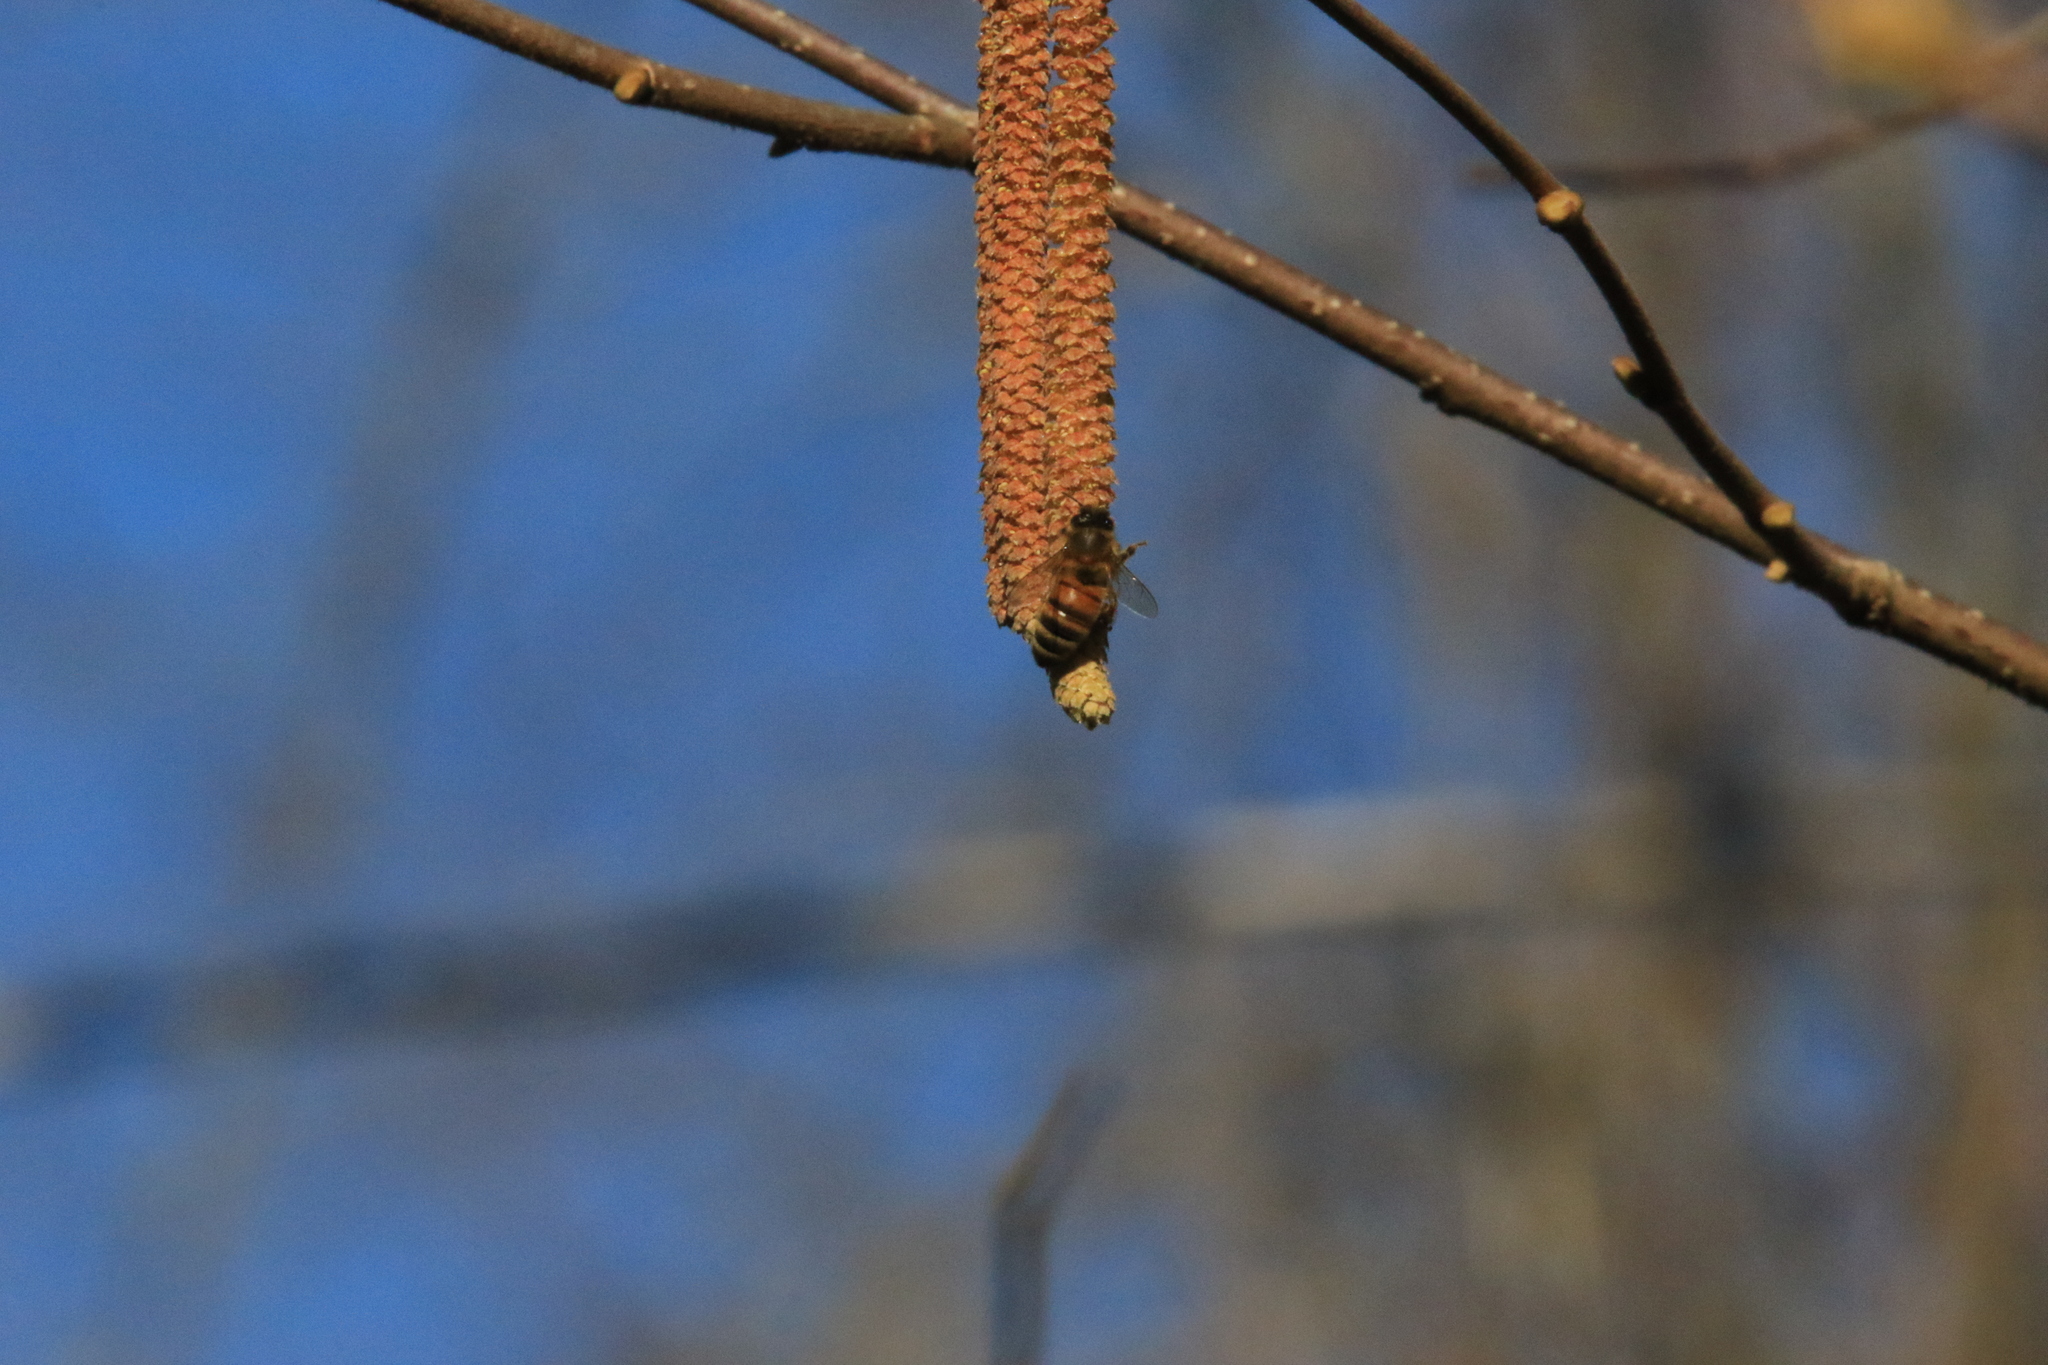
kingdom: Animalia
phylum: Arthropoda
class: Insecta
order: Hymenoptera
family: Apidae
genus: Apis
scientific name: Apis mellifera
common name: Honey bee
